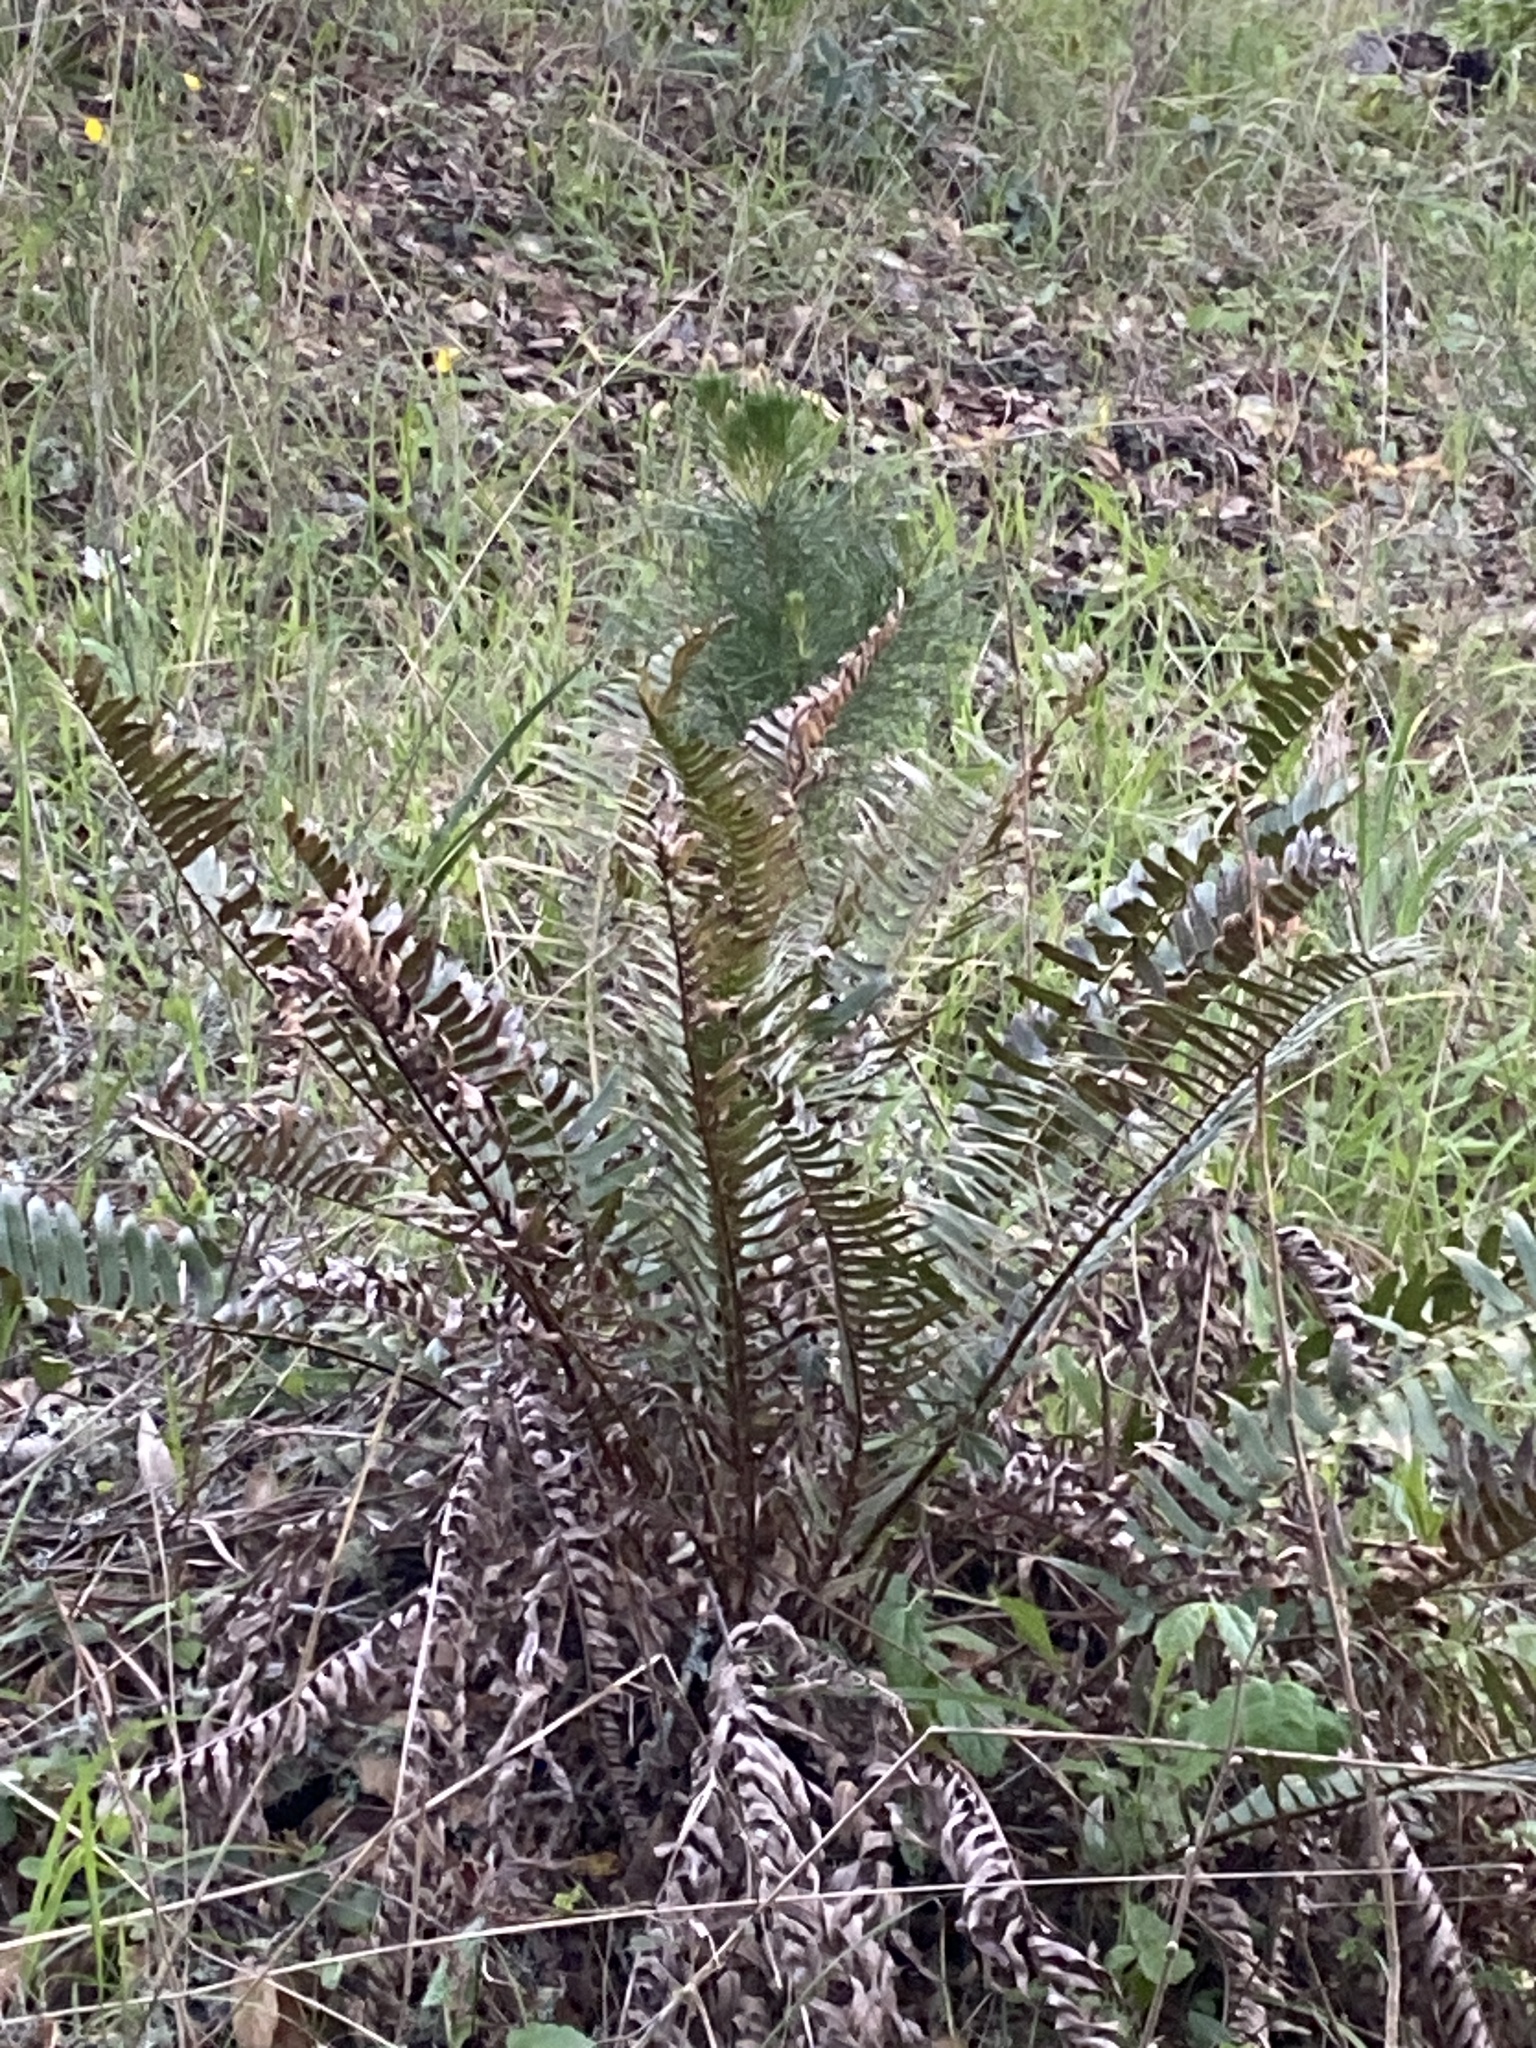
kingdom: Plantae
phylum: Tracheophyta
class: Polypodiopsida
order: Polypodiales
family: Dryopteridaceae
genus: Polystichum
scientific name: Polystichum munitum
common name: Western sword-fern
